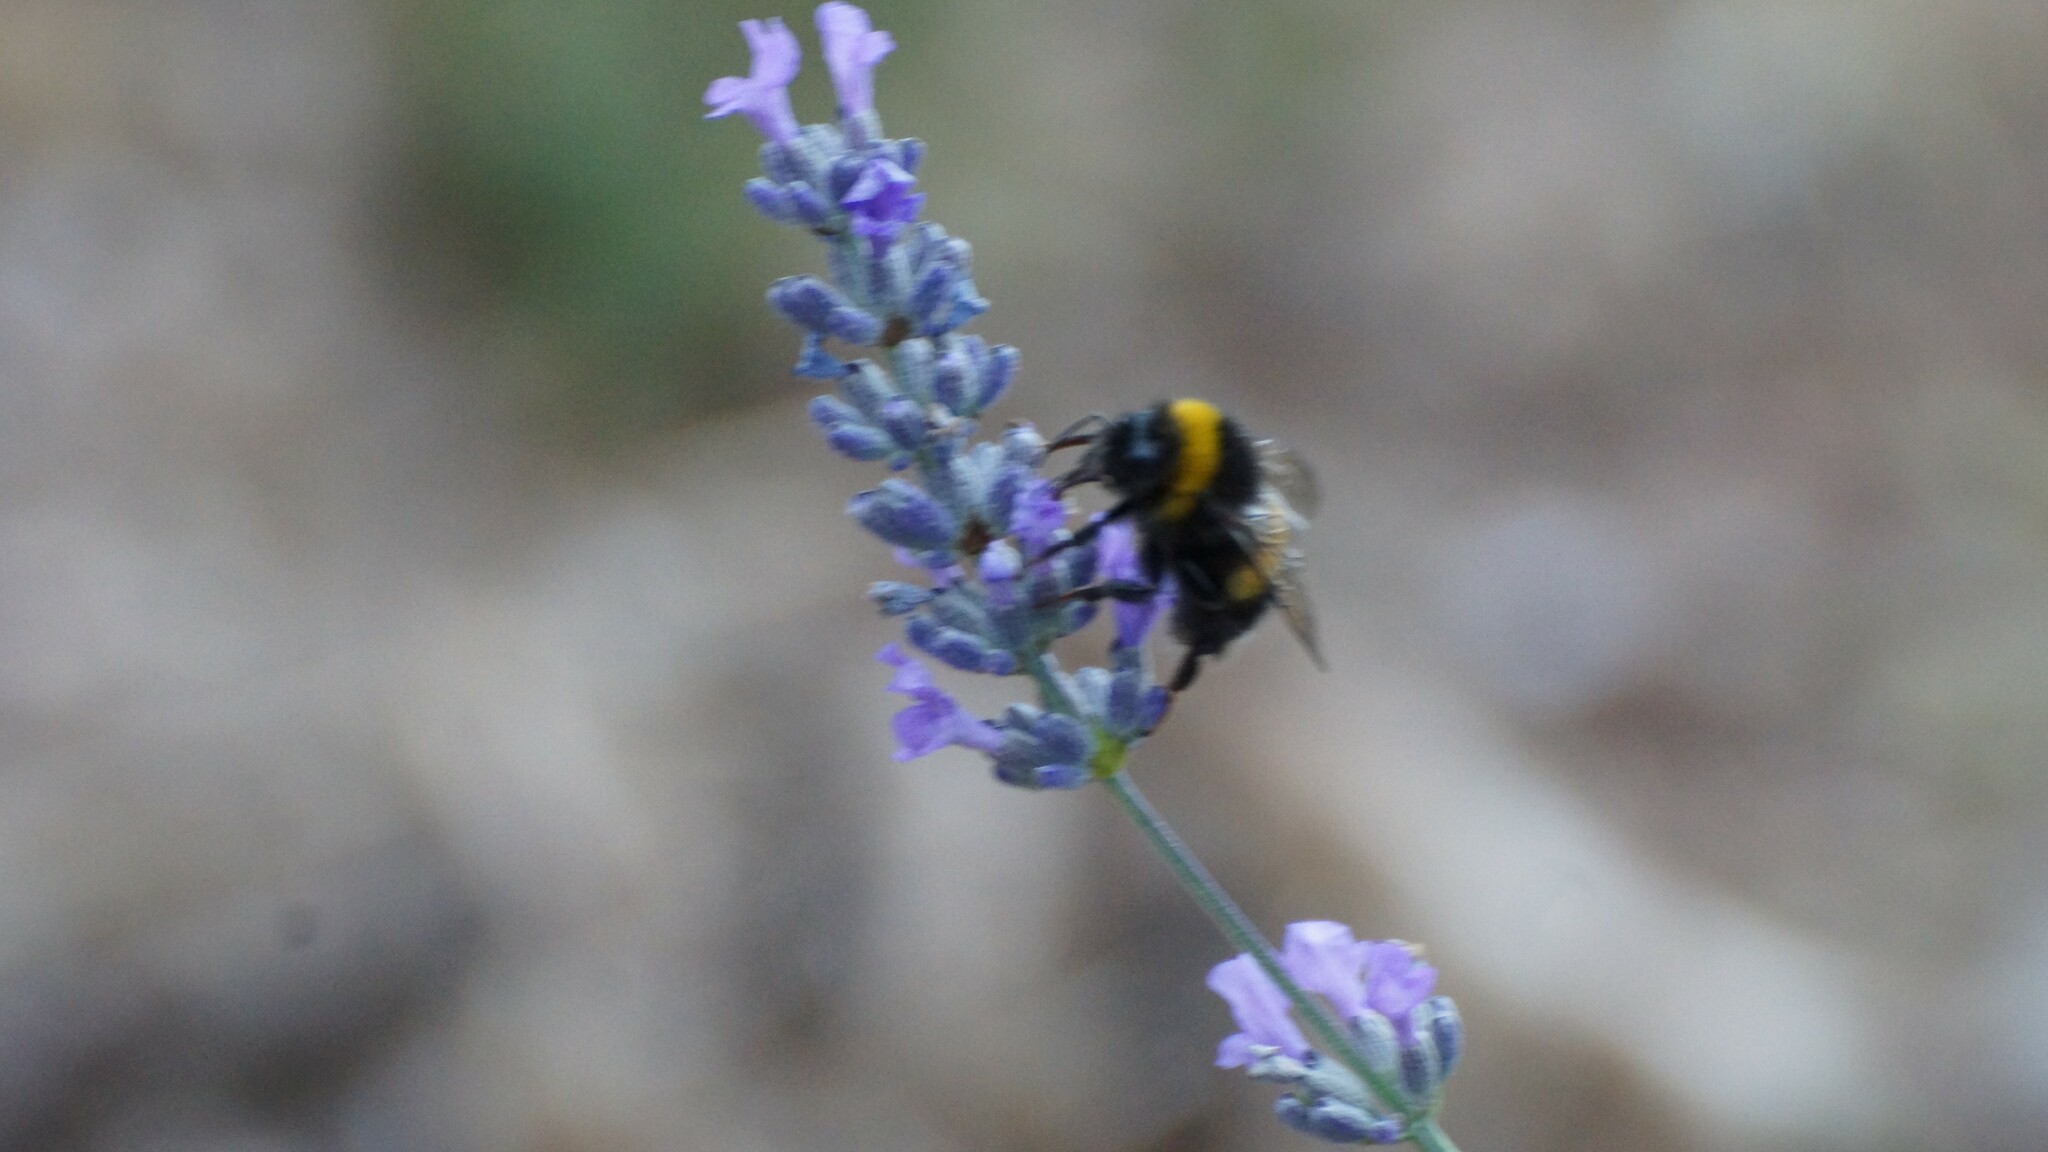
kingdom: Animalia
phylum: Arthropoda
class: Insecta
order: Hymenoptera
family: Apidae
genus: Bombus
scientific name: Bombus terrestris
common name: Buff-tailed bumblebee
